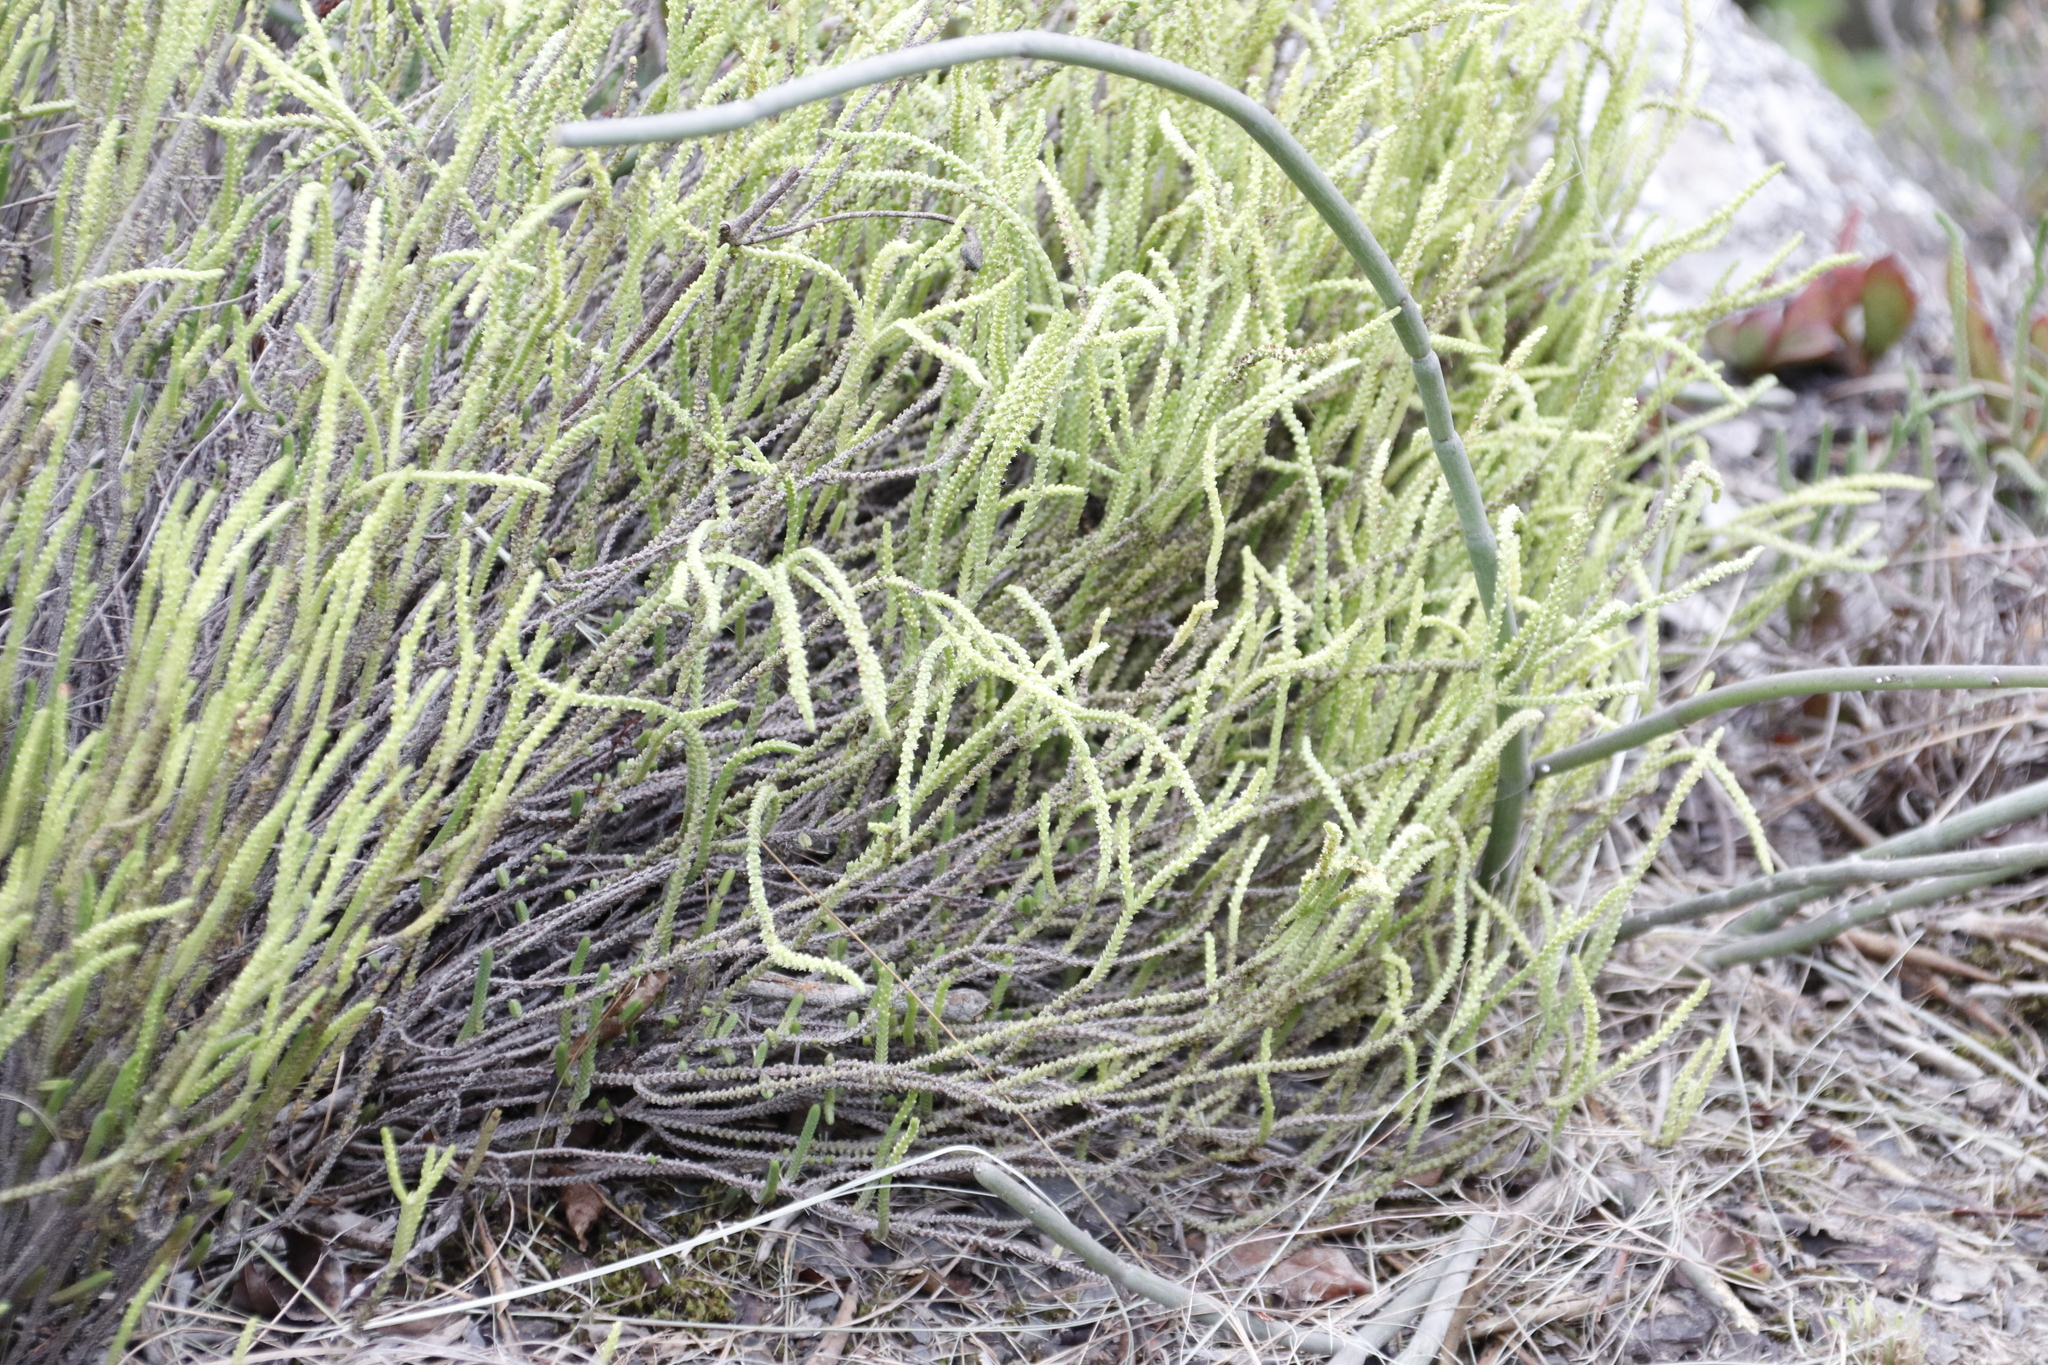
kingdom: Plantae
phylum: Tracheophyta
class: Magnoliopsida
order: Gentianales
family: Apocynaceae
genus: Cynanchum
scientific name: Cynanchum viminale
